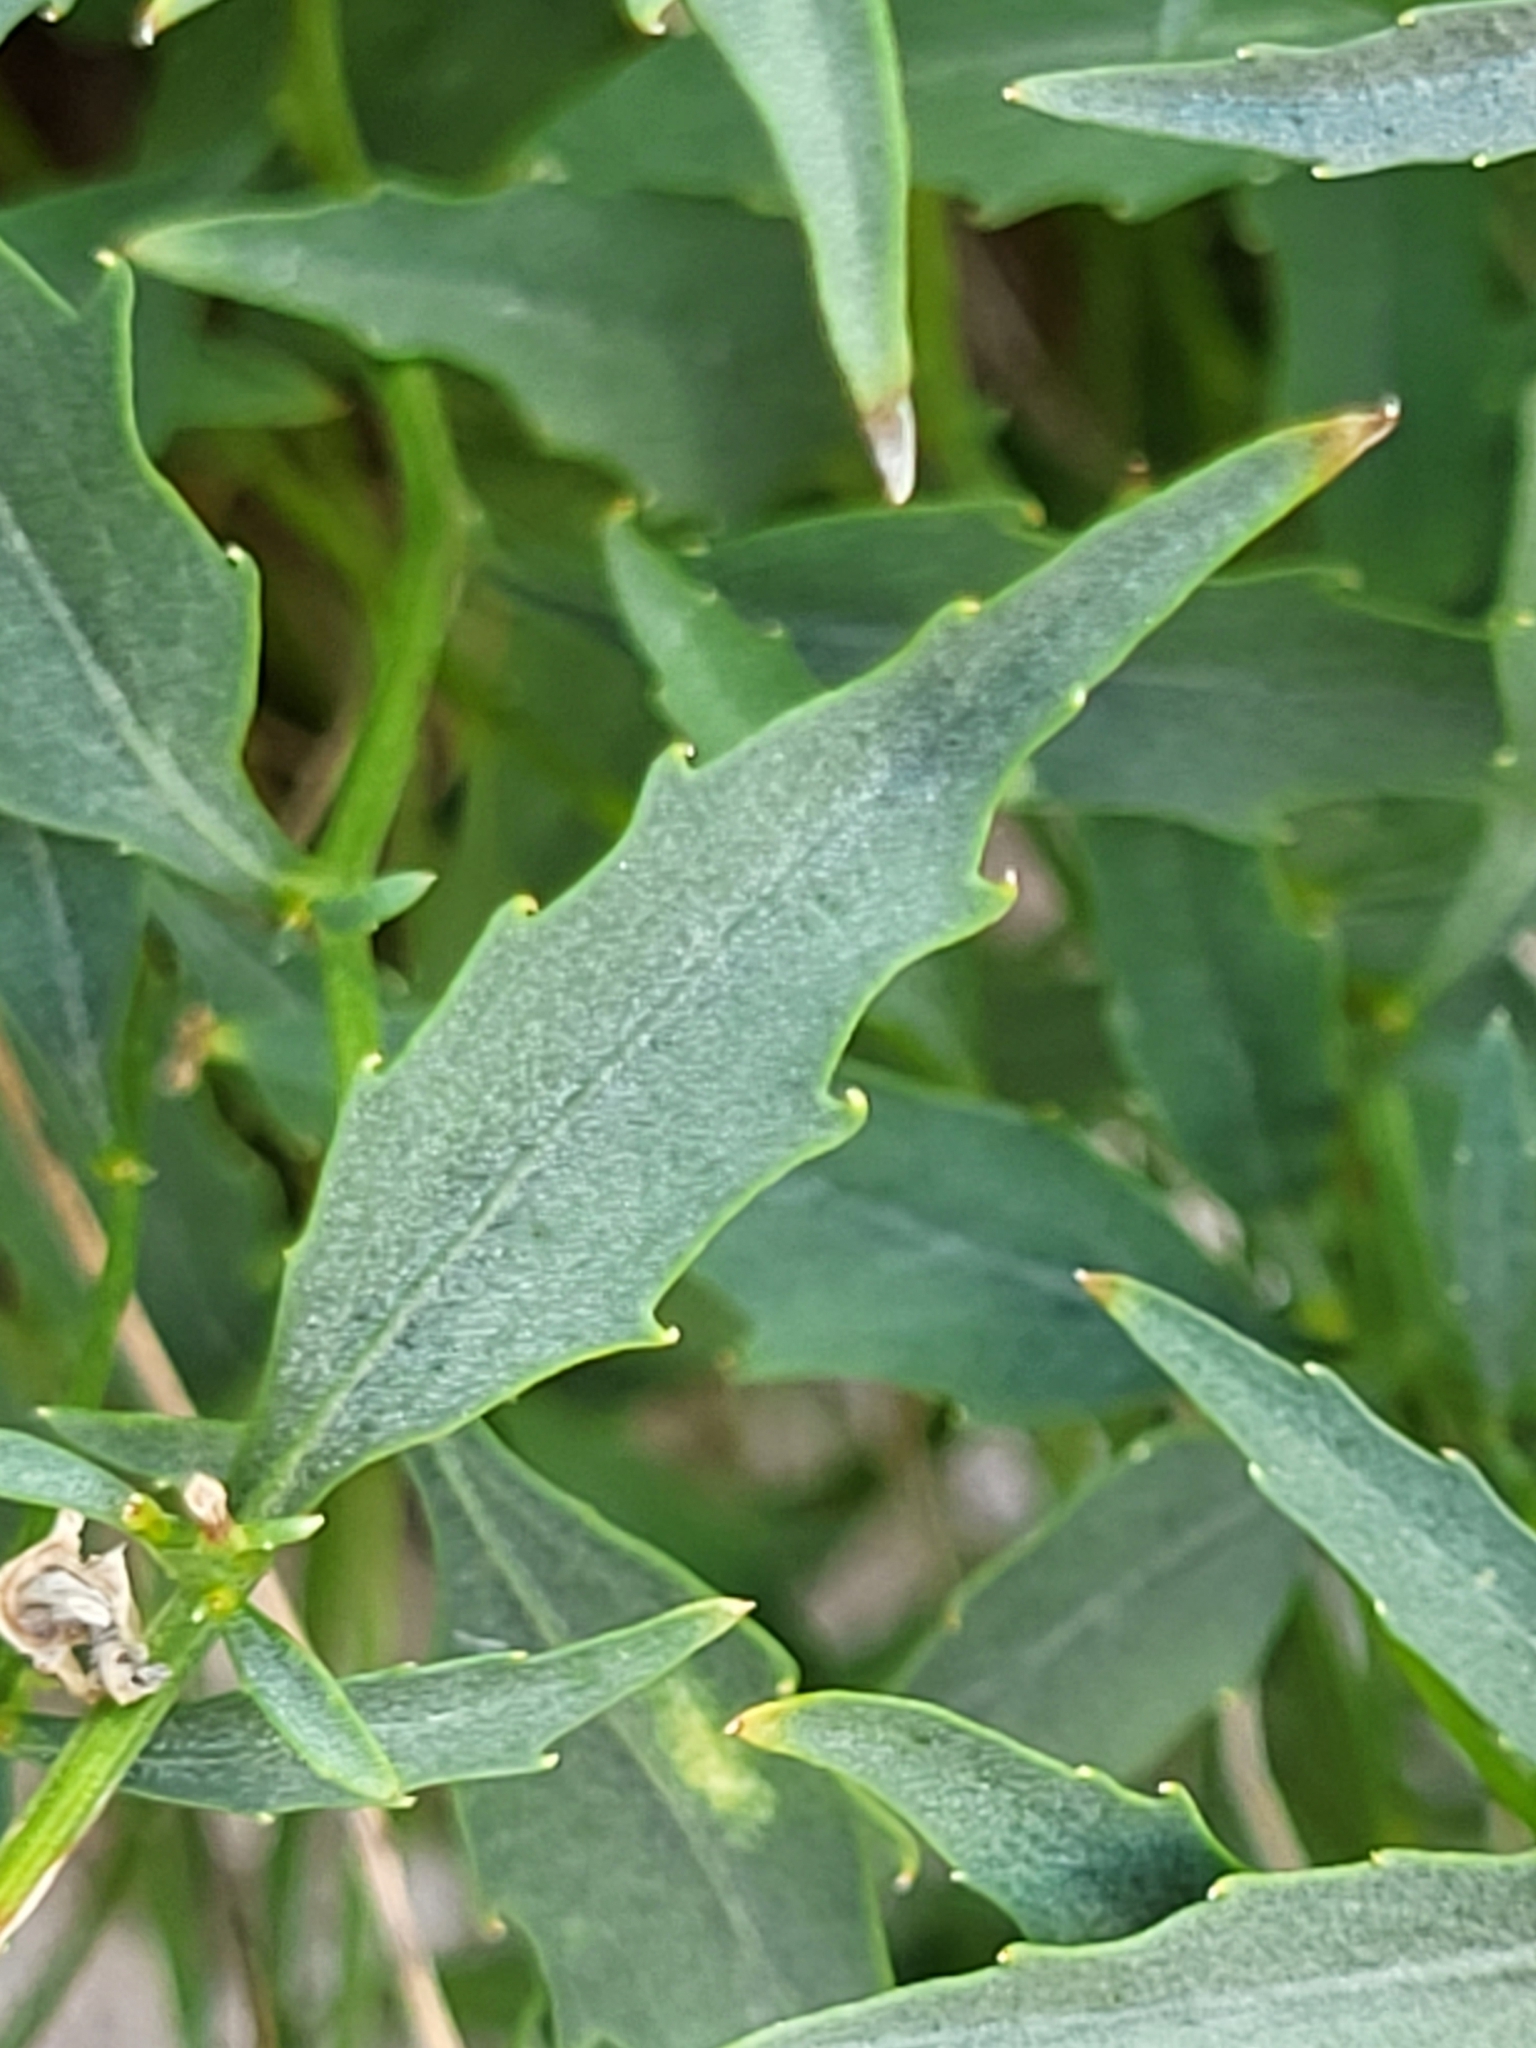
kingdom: Plantae
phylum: Tracheophyta
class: Magnoliopsida
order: Asterales
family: Campanulaceae
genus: Campanula
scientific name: Campanula waldsteiniana
